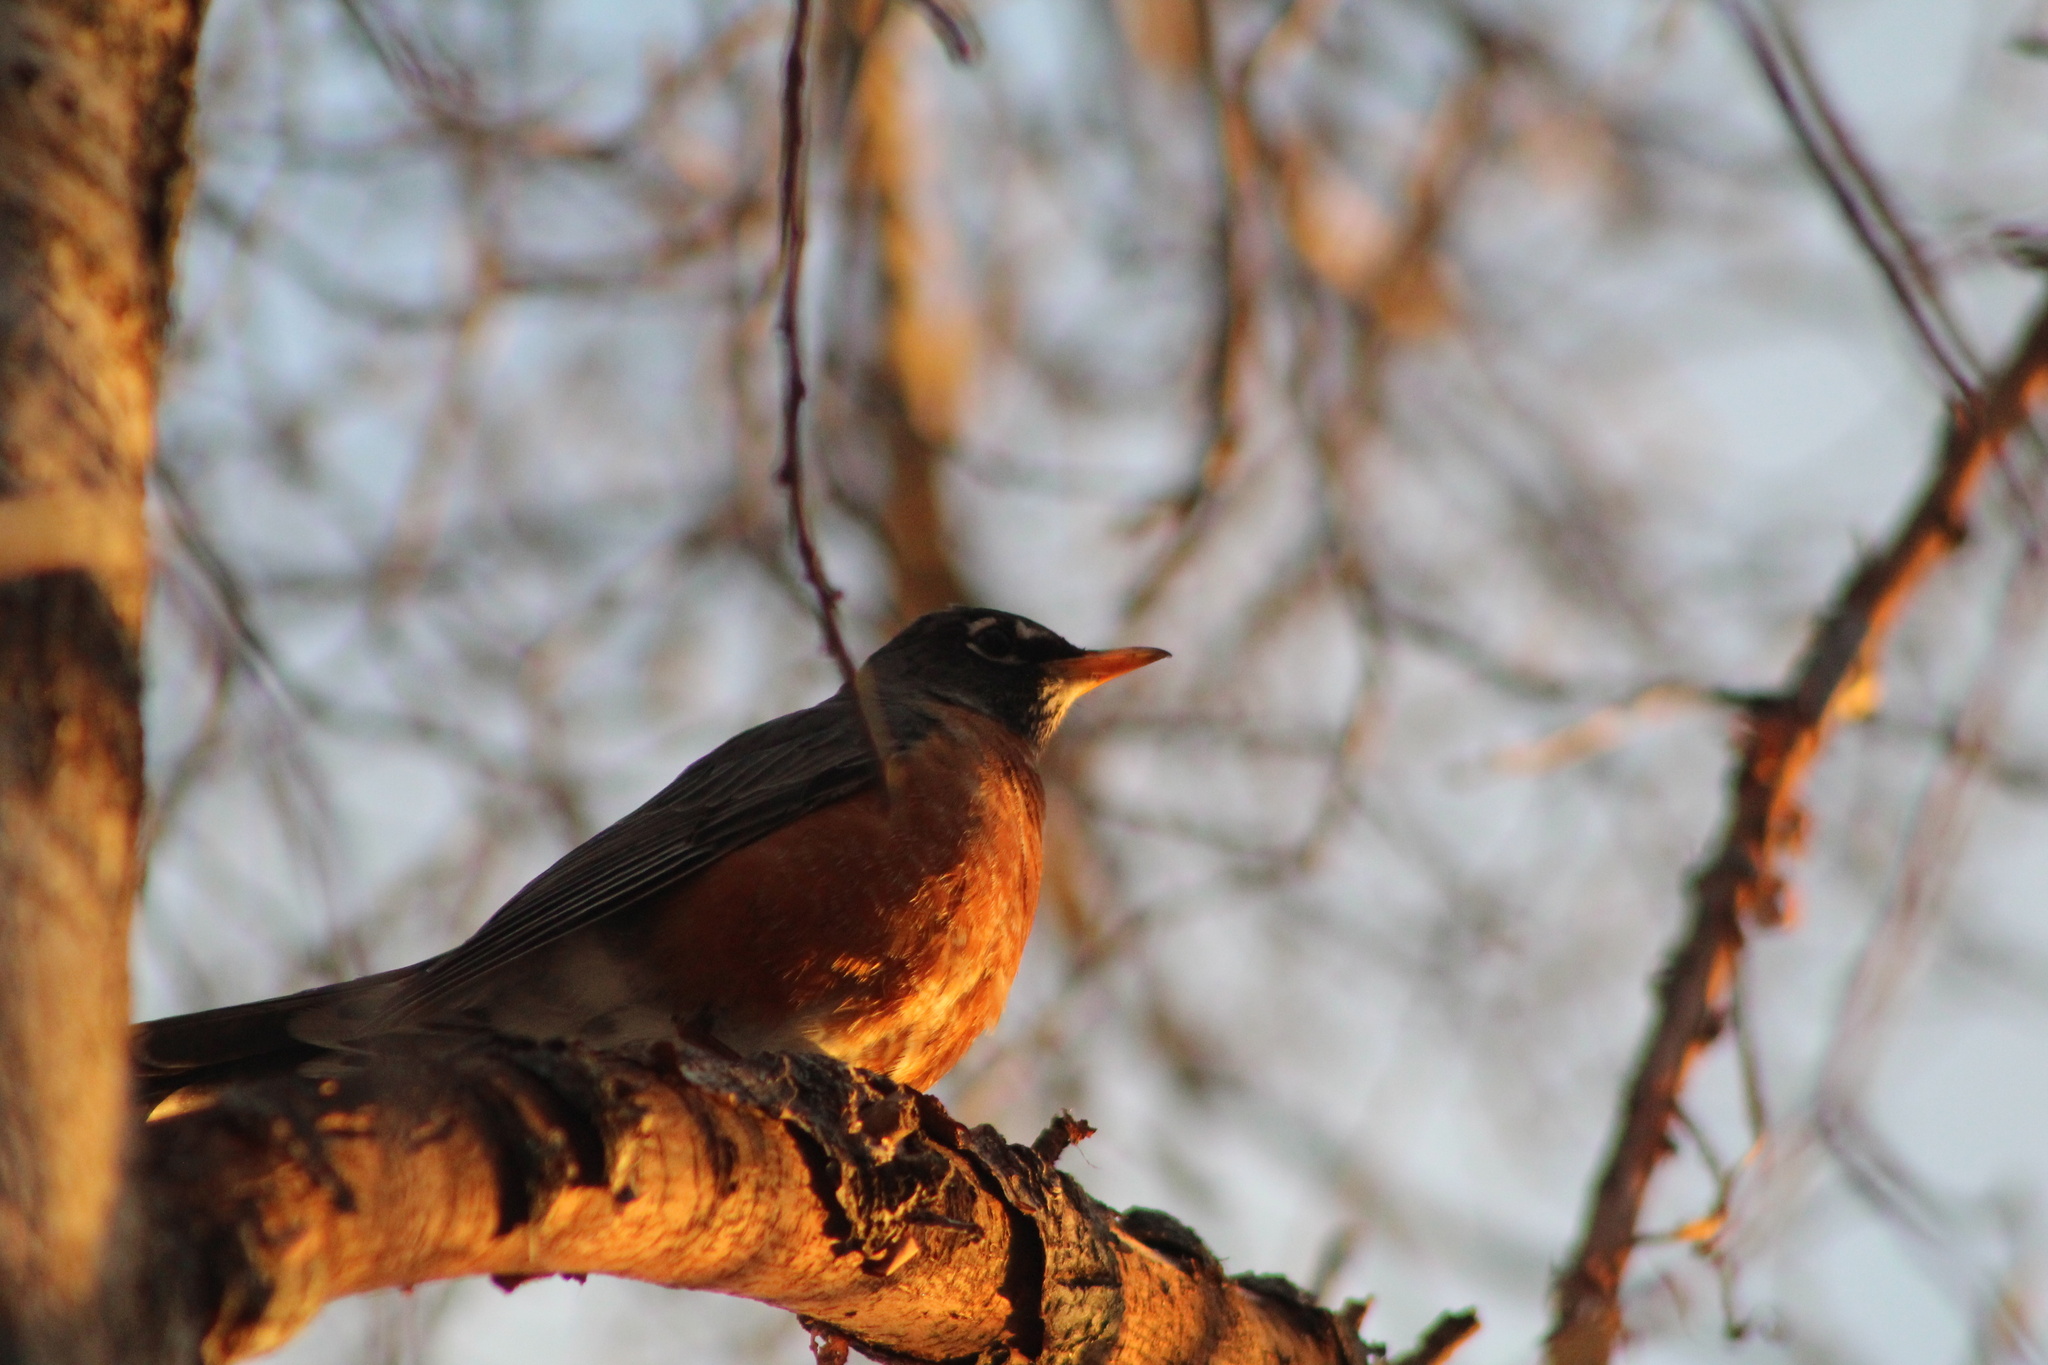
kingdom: Animalia
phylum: Chordata
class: Aves
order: Passeriformes
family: Turdidae
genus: Turdus
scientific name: Turdus migratorius
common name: American robin
